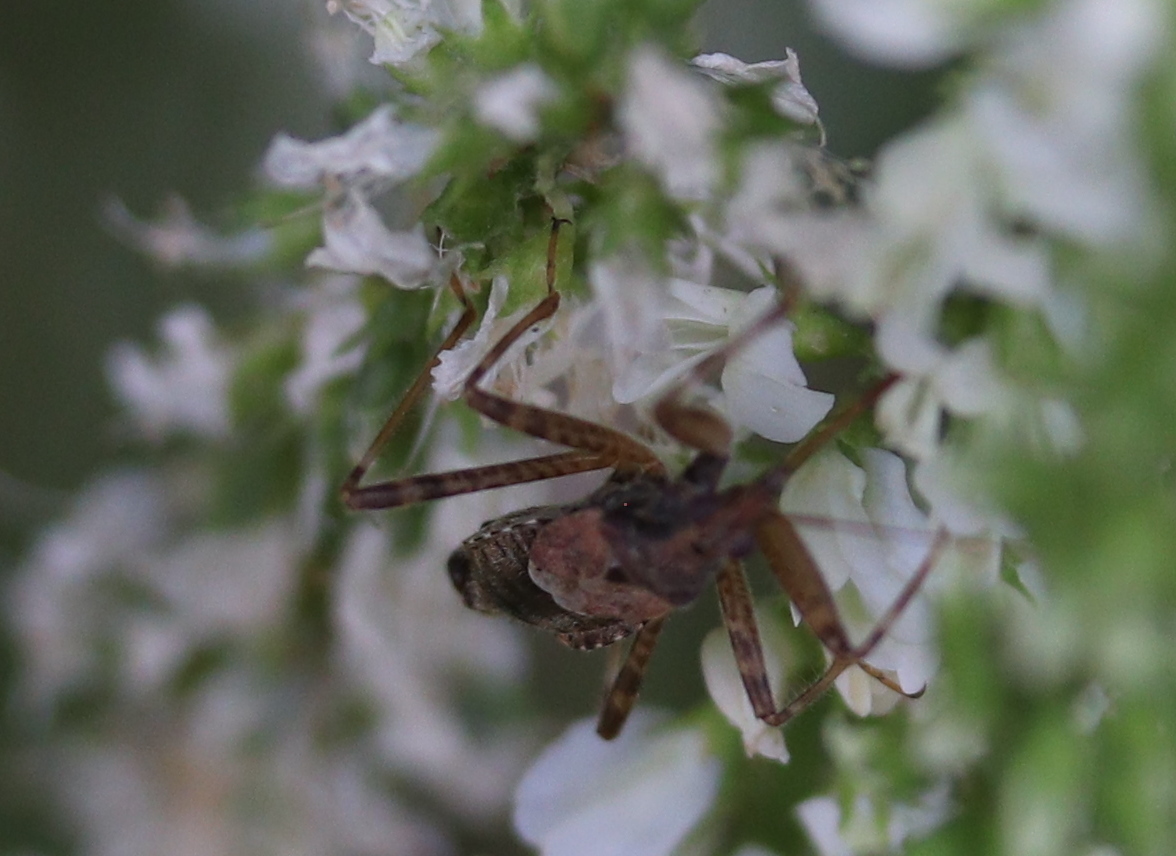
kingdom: Animalia
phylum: Arthropoda
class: Insecta
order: Hemiptera
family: Nabidae
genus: Himacerus
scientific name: Himacerus apterus
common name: Tree damsel bug
